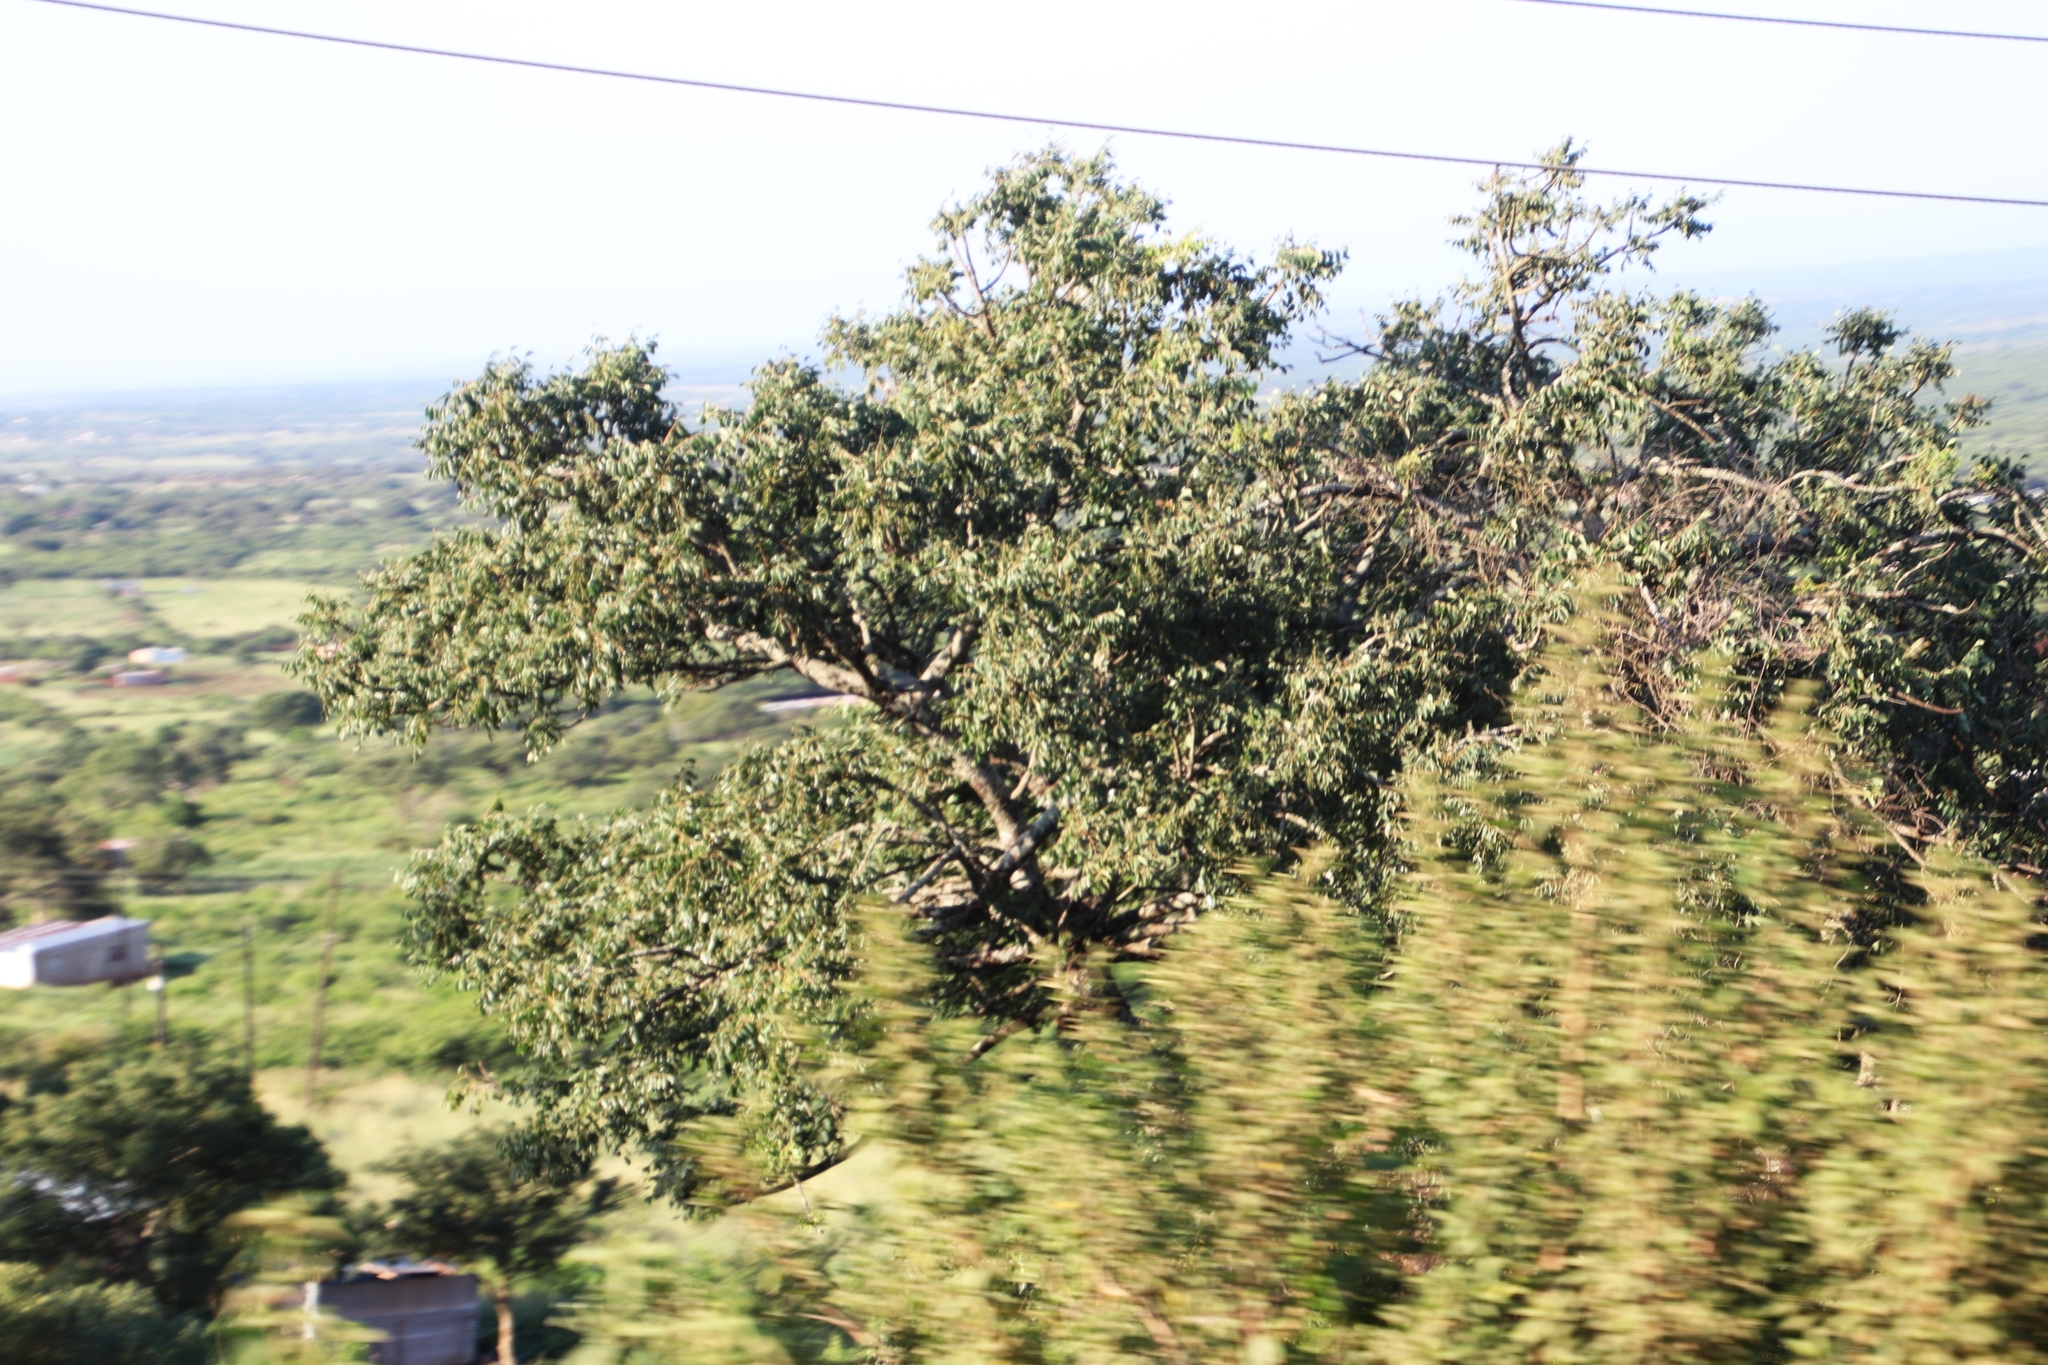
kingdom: Plantae
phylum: Tracheophyta
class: Magnoliopsida
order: Sapindales
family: Anacardiaceae
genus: Sclerocarya
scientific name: Sclerocarya birrea
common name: Marula
